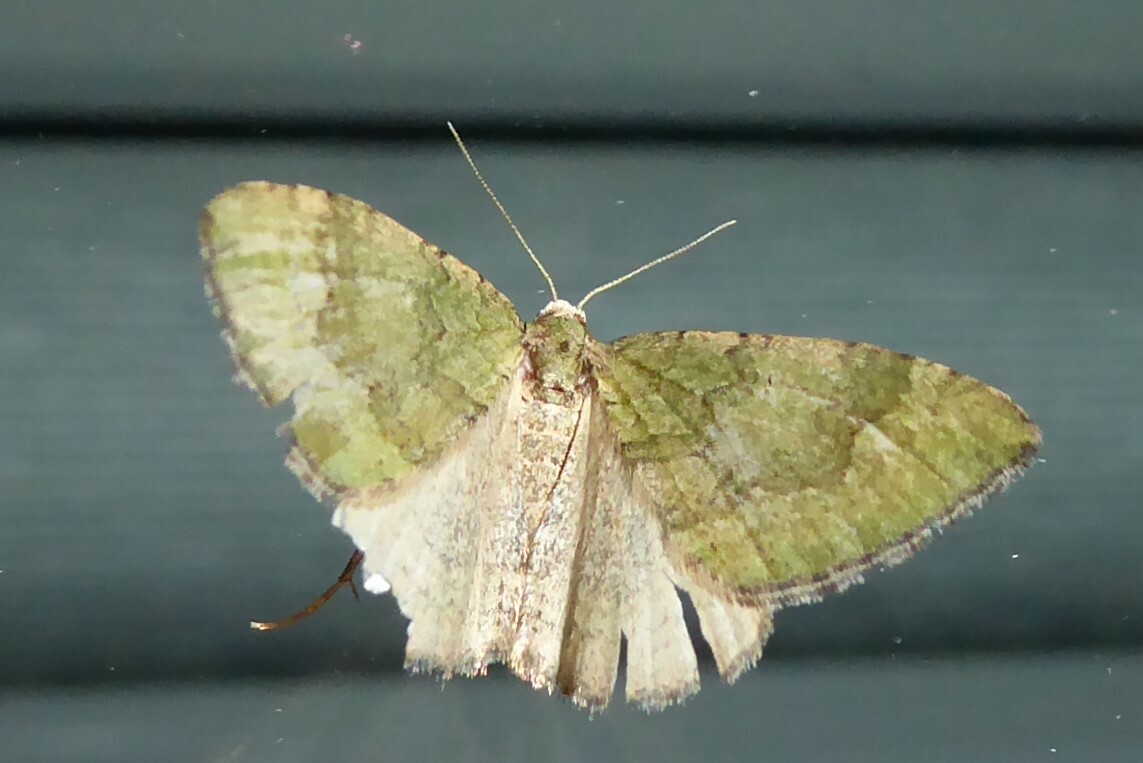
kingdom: Animalia
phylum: Arthropoda
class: Insecta
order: Lepidoptera
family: Geometridae
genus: Epyaxa
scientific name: Epyaxa rosearia
